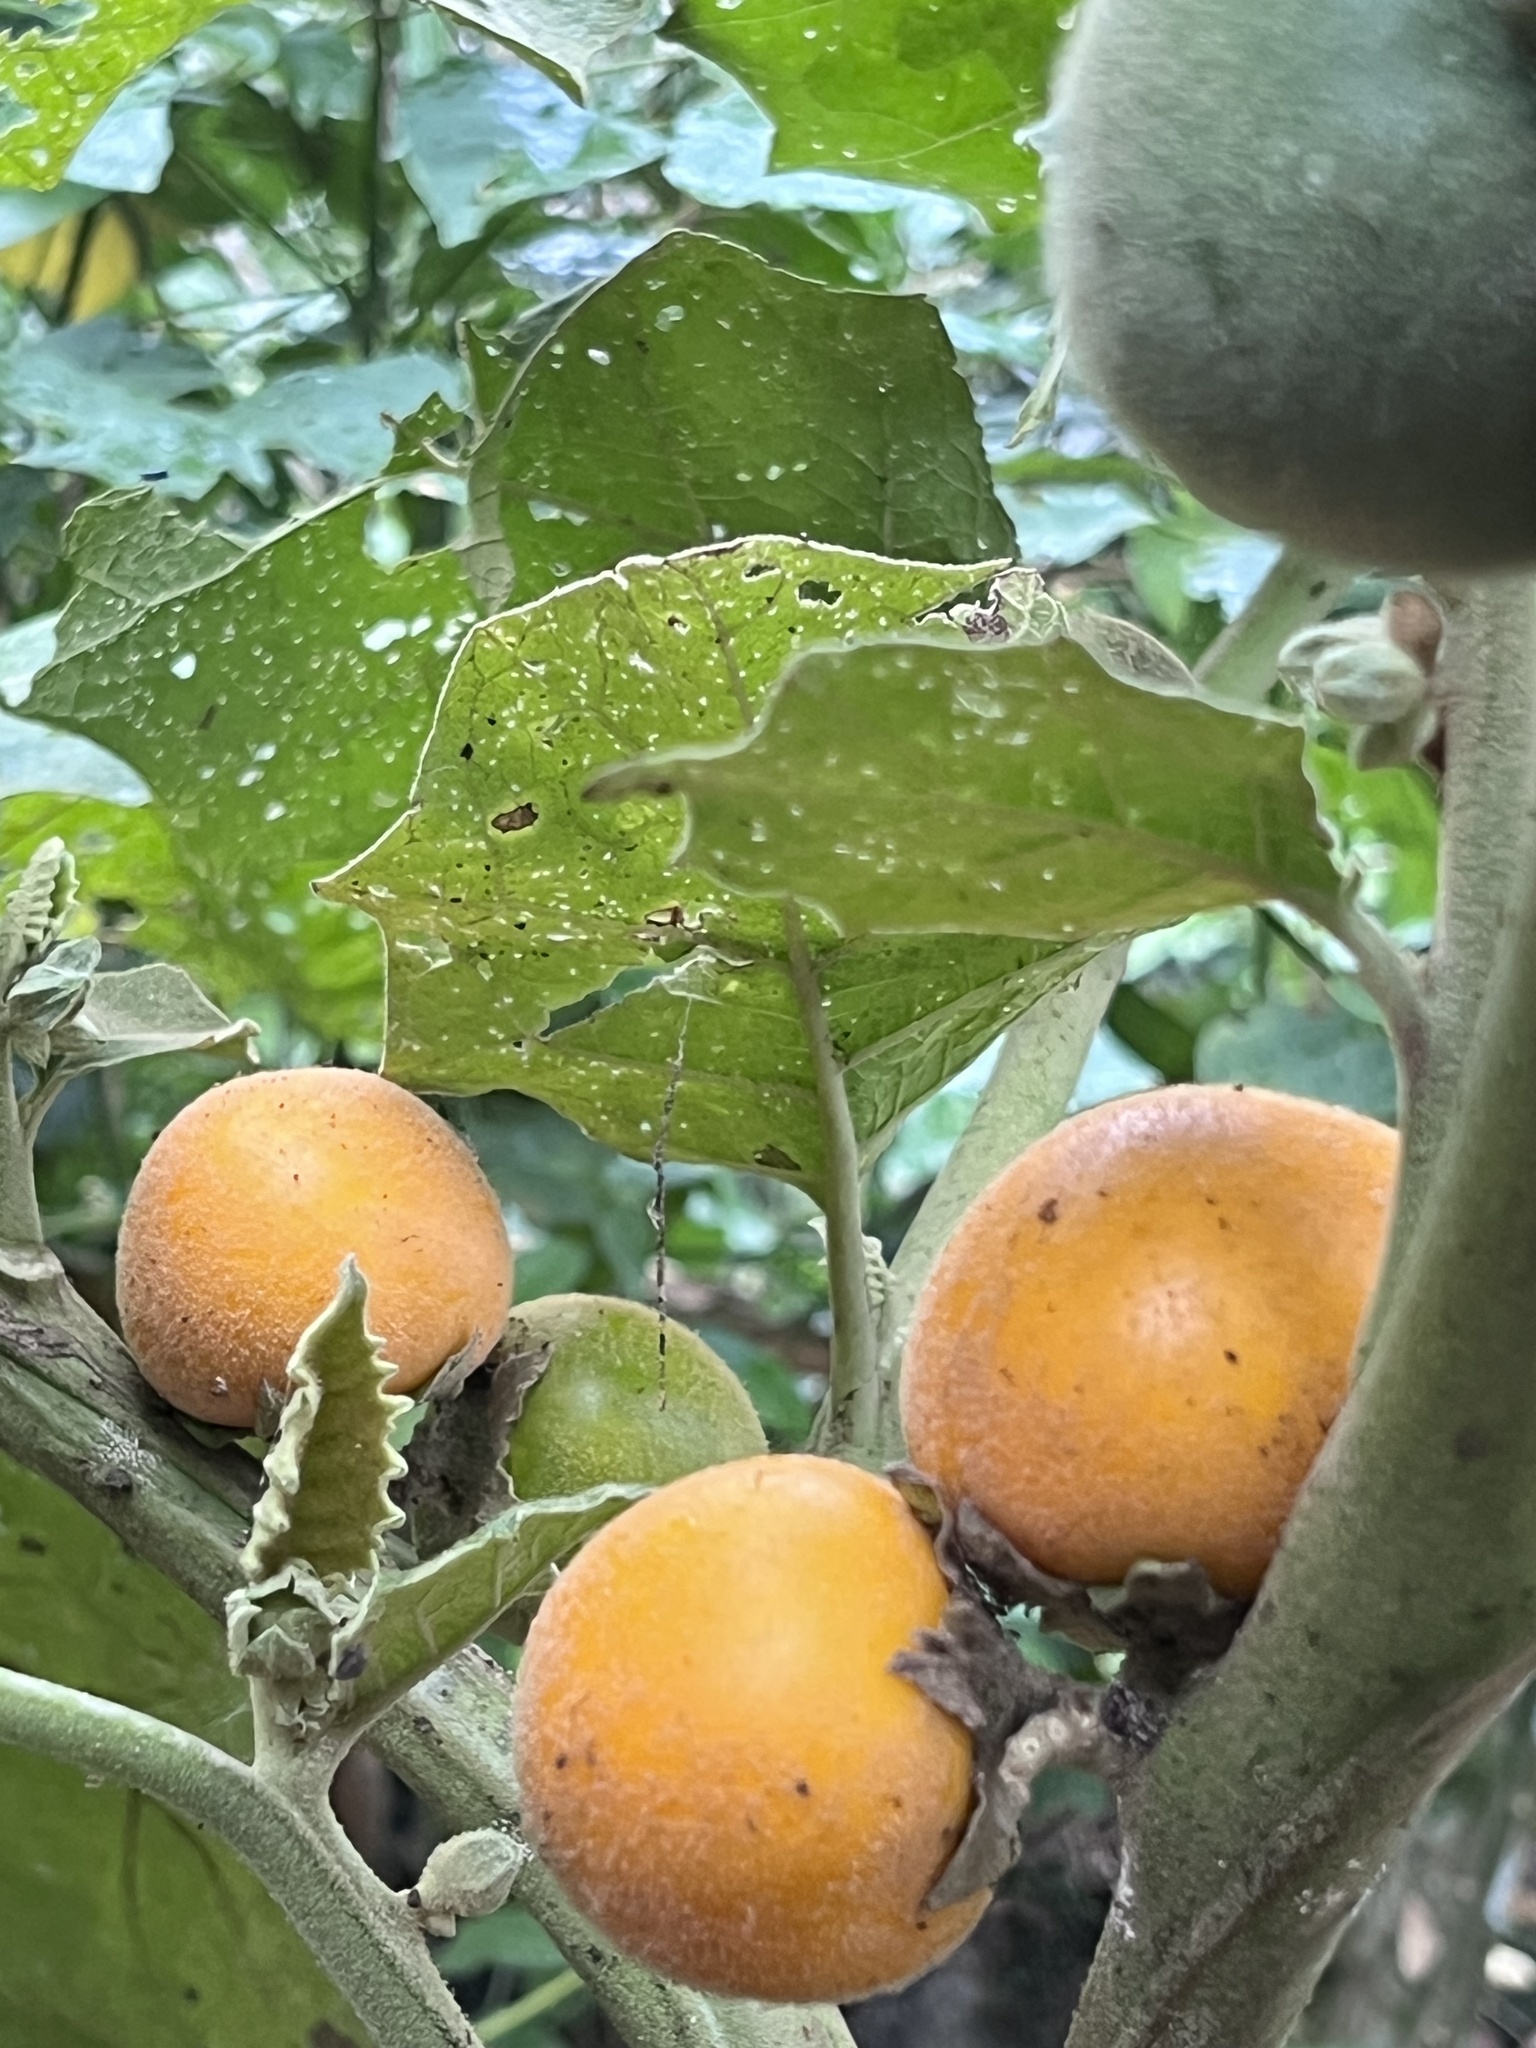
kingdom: Plantae
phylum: Tracheophyta
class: Magnoliopsida
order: Solanales
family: Solanaceae
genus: Solanum
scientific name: Solanum sessiliflorum
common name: Orinoco-apple
